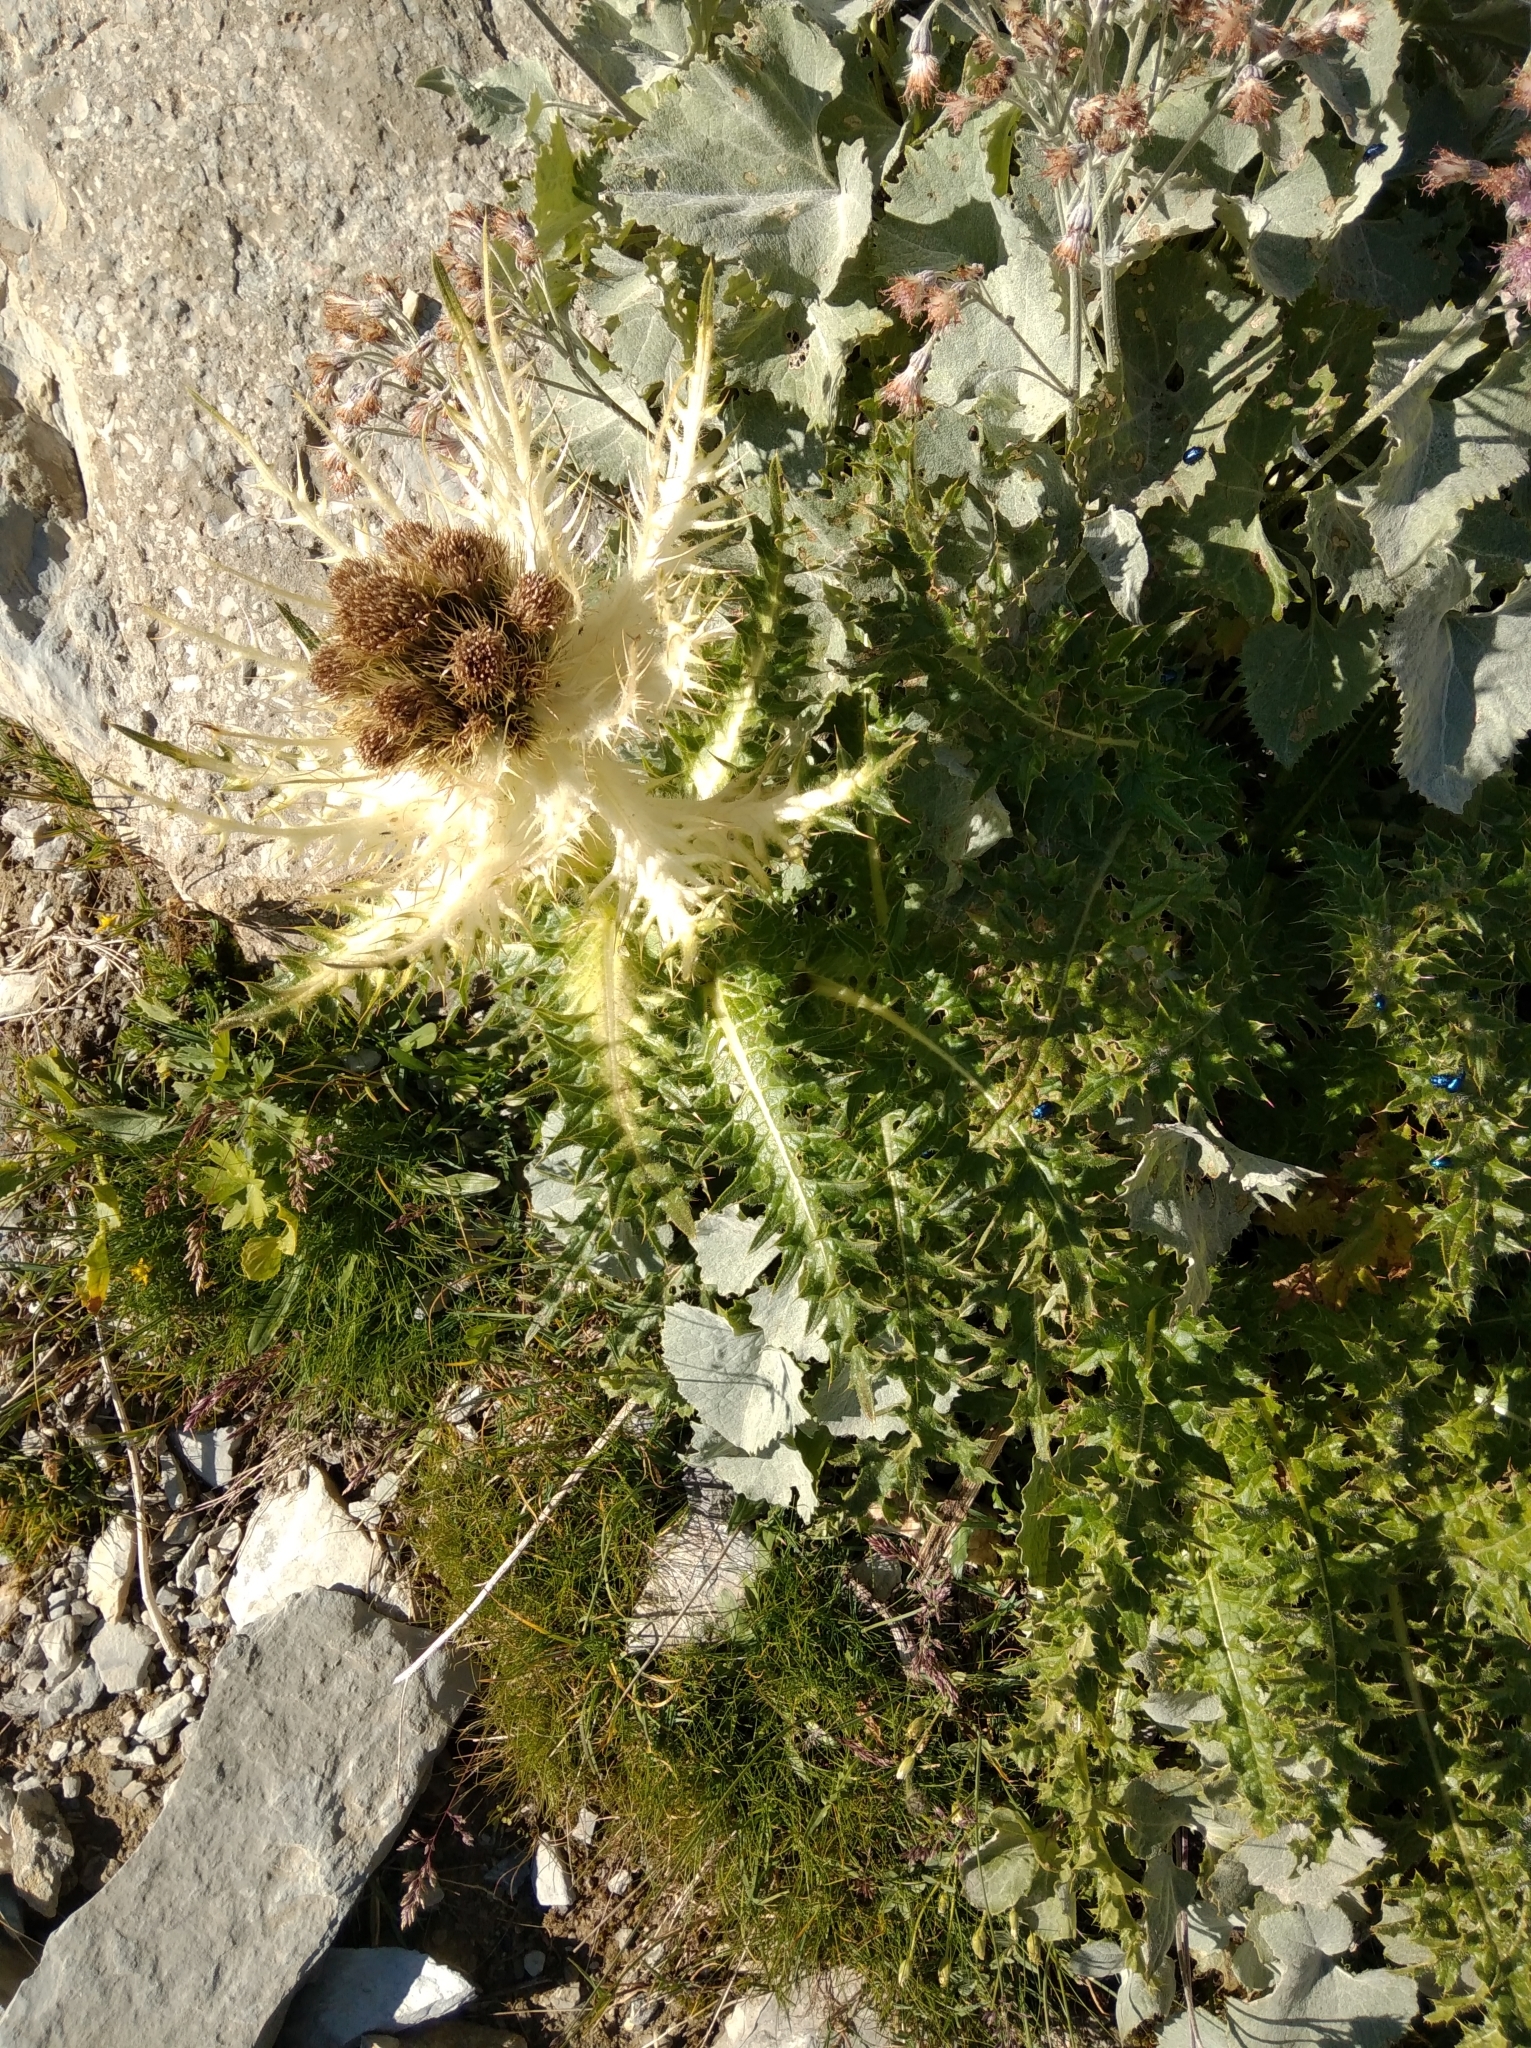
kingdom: Plantae
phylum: Tracheophyta
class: Magnoliopsida
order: Asterales
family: Asteraceae
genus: Cirsium
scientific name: Cirsium spinosissimum
